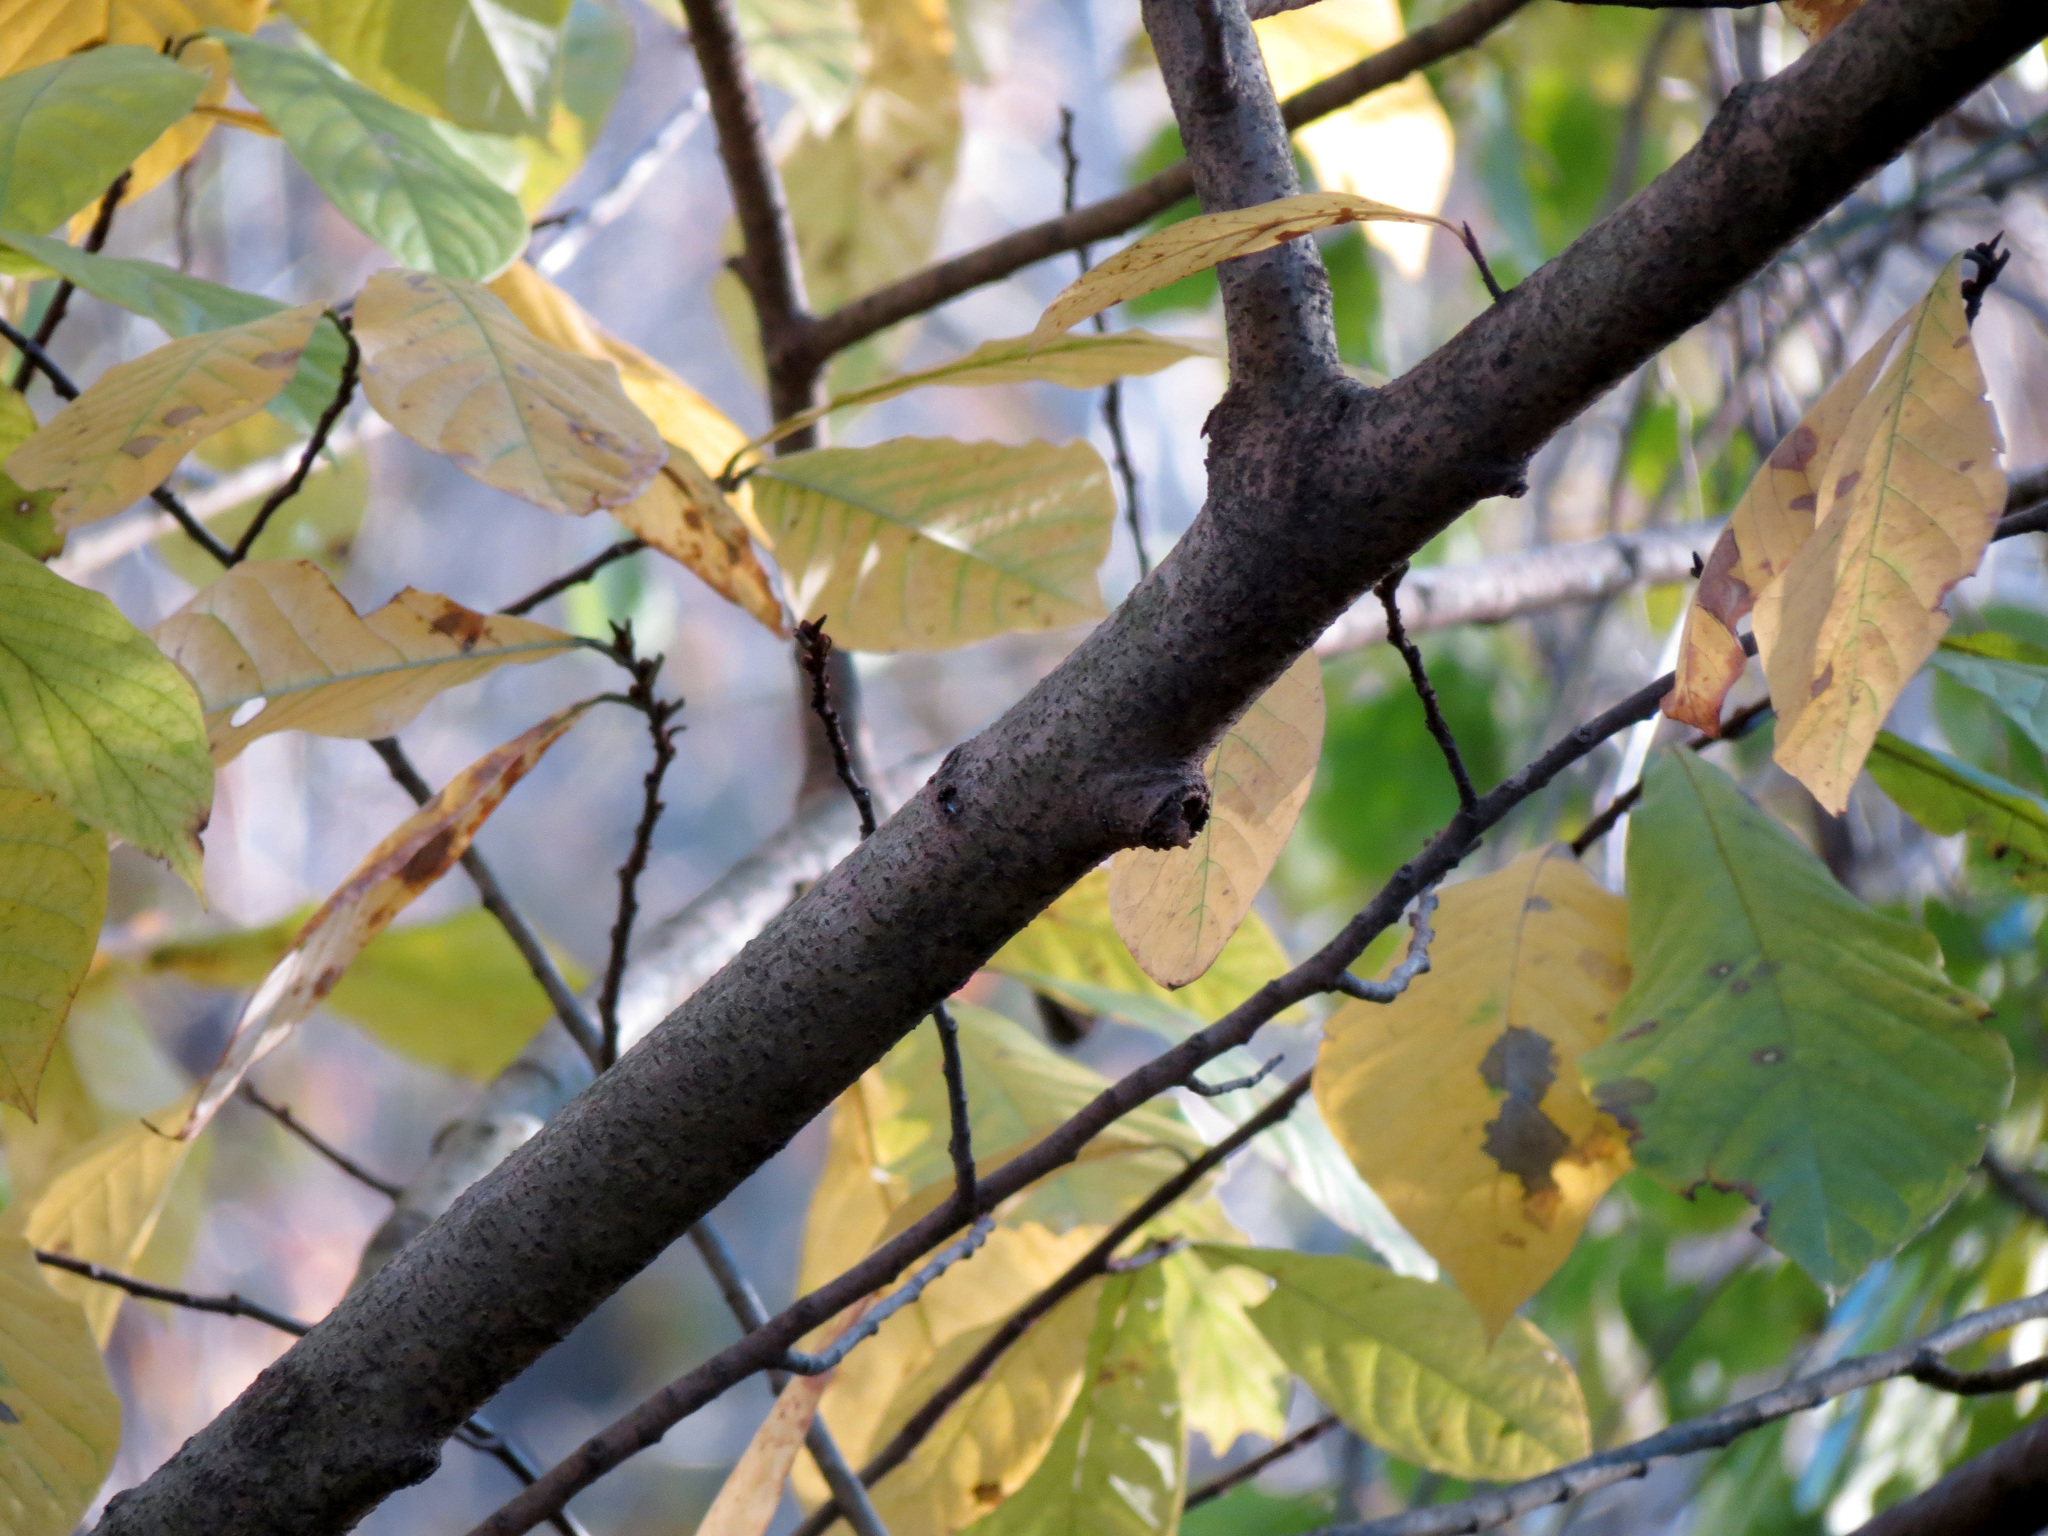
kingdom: Plantae
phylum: Tracheophyta
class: Magnoliopsida
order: Magnoliales
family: Annonaceae
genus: Asimina
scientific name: Asimina triloba
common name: Dog-banana
